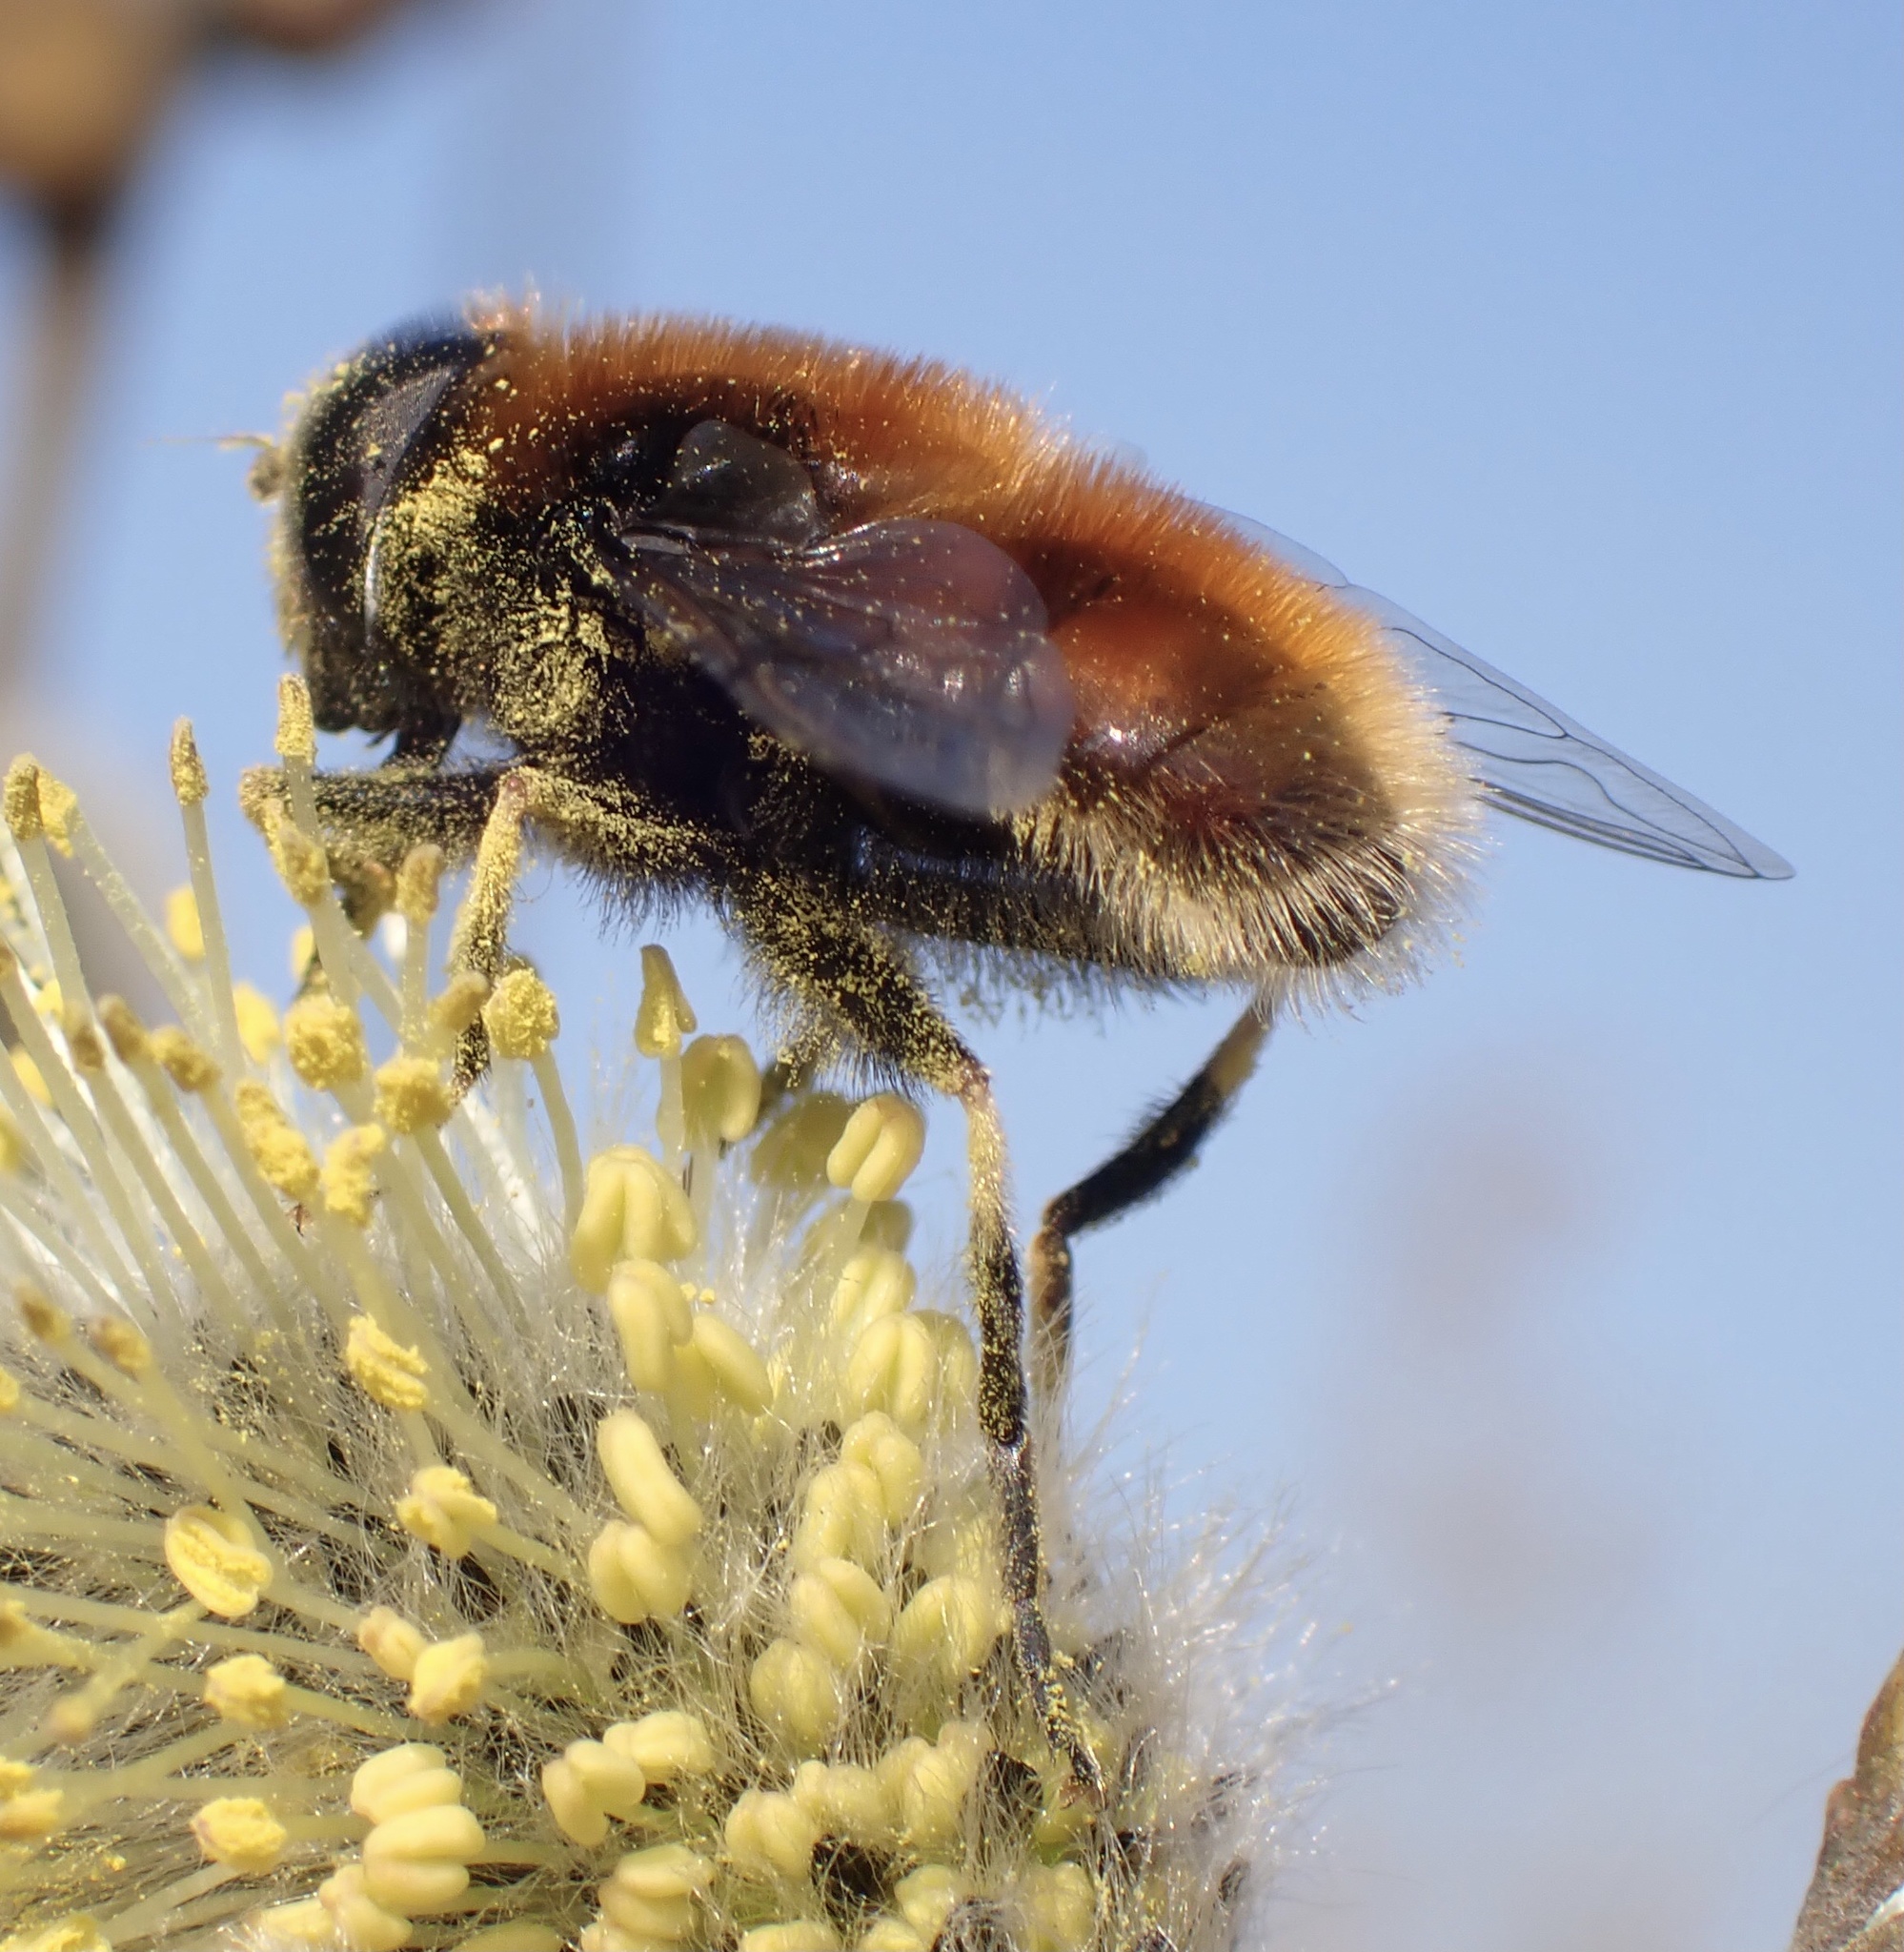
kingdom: Animalia
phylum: Arthropoda
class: Insecta
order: Diptera
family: Syrphidae
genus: Eristalis
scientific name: Eristalis intricaria
